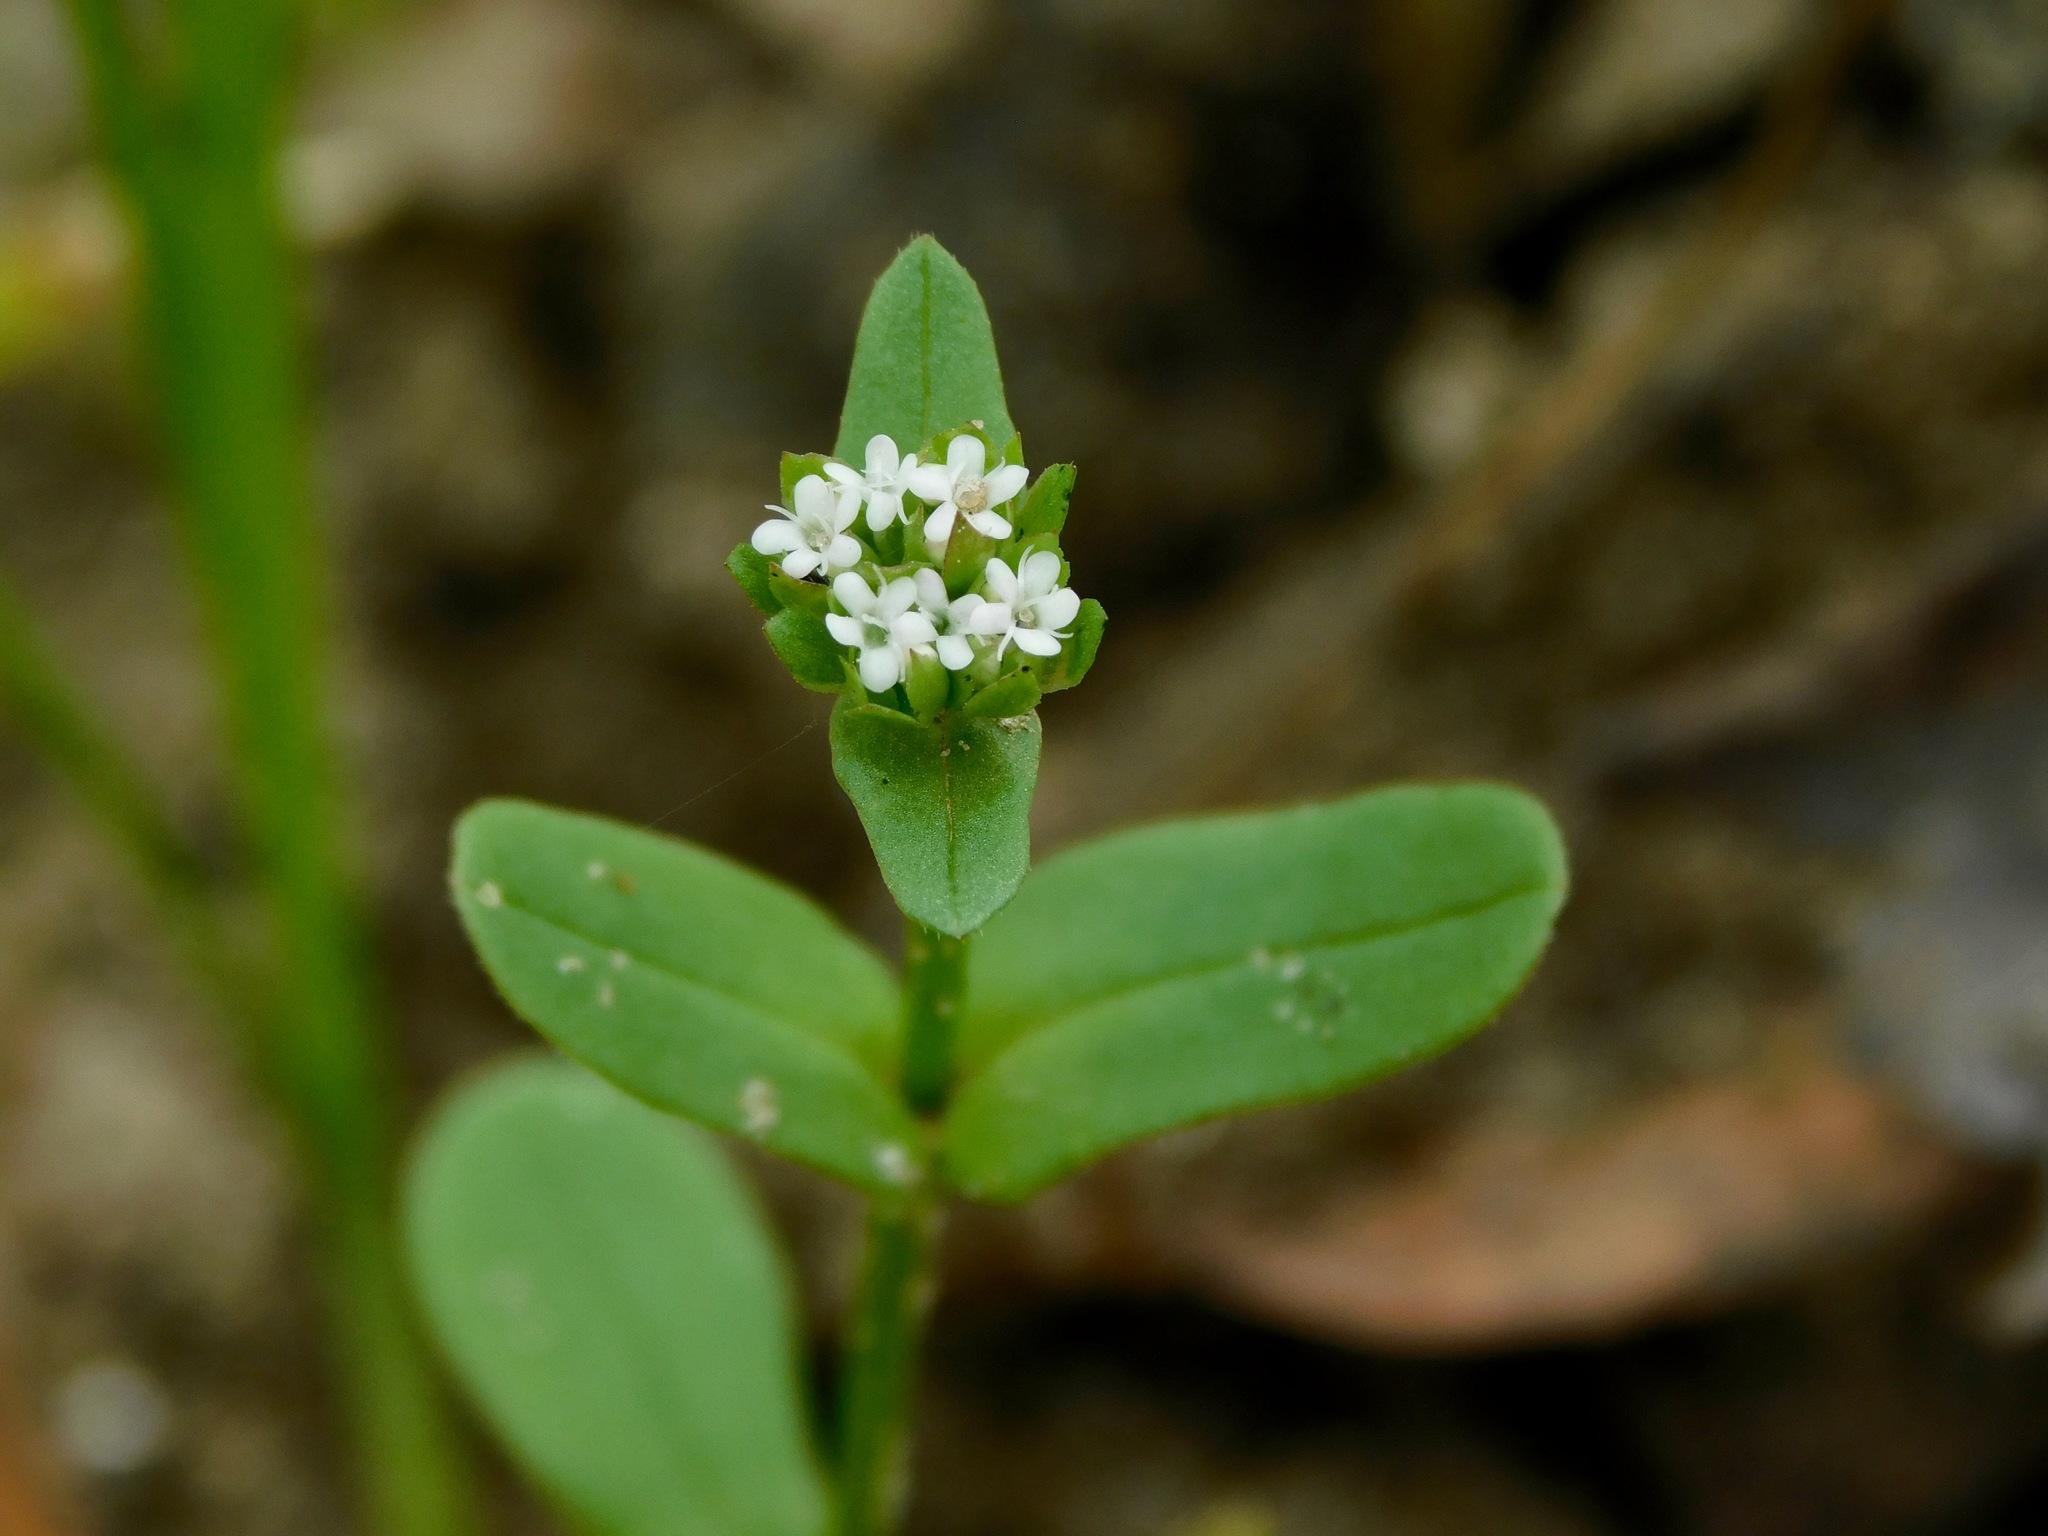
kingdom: Plantae
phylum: Tracheophyta
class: Magnoliopsida
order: Dipsacales
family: Caprifoliaceae
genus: Valerianella
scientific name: Valerianella radiata
